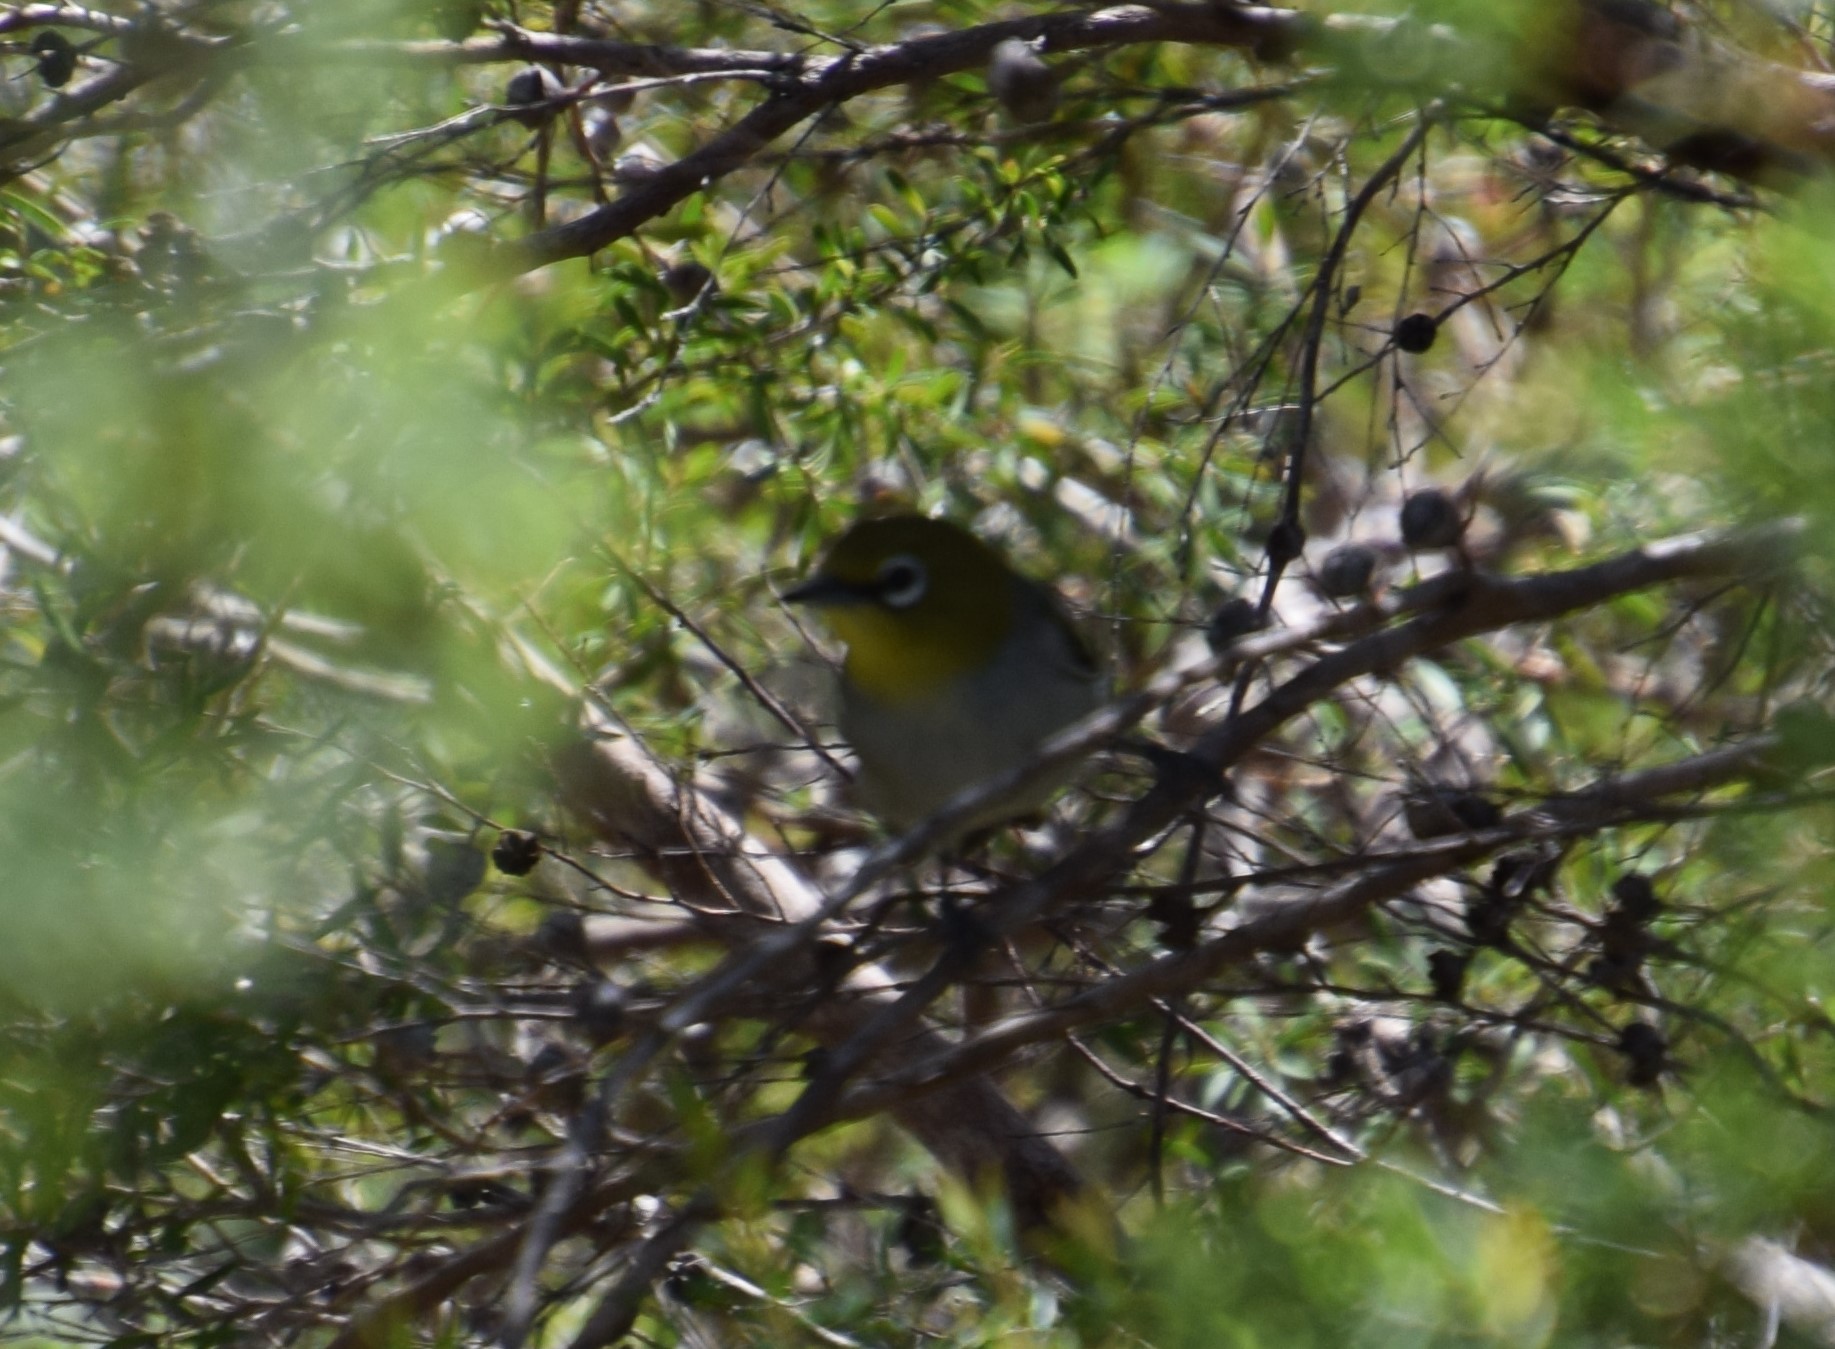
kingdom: Animalia
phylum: Chordata
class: Aves
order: Passeriformes
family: Zosteropidae
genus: Zosterops
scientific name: Zosterops lateralis
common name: Silvereye
